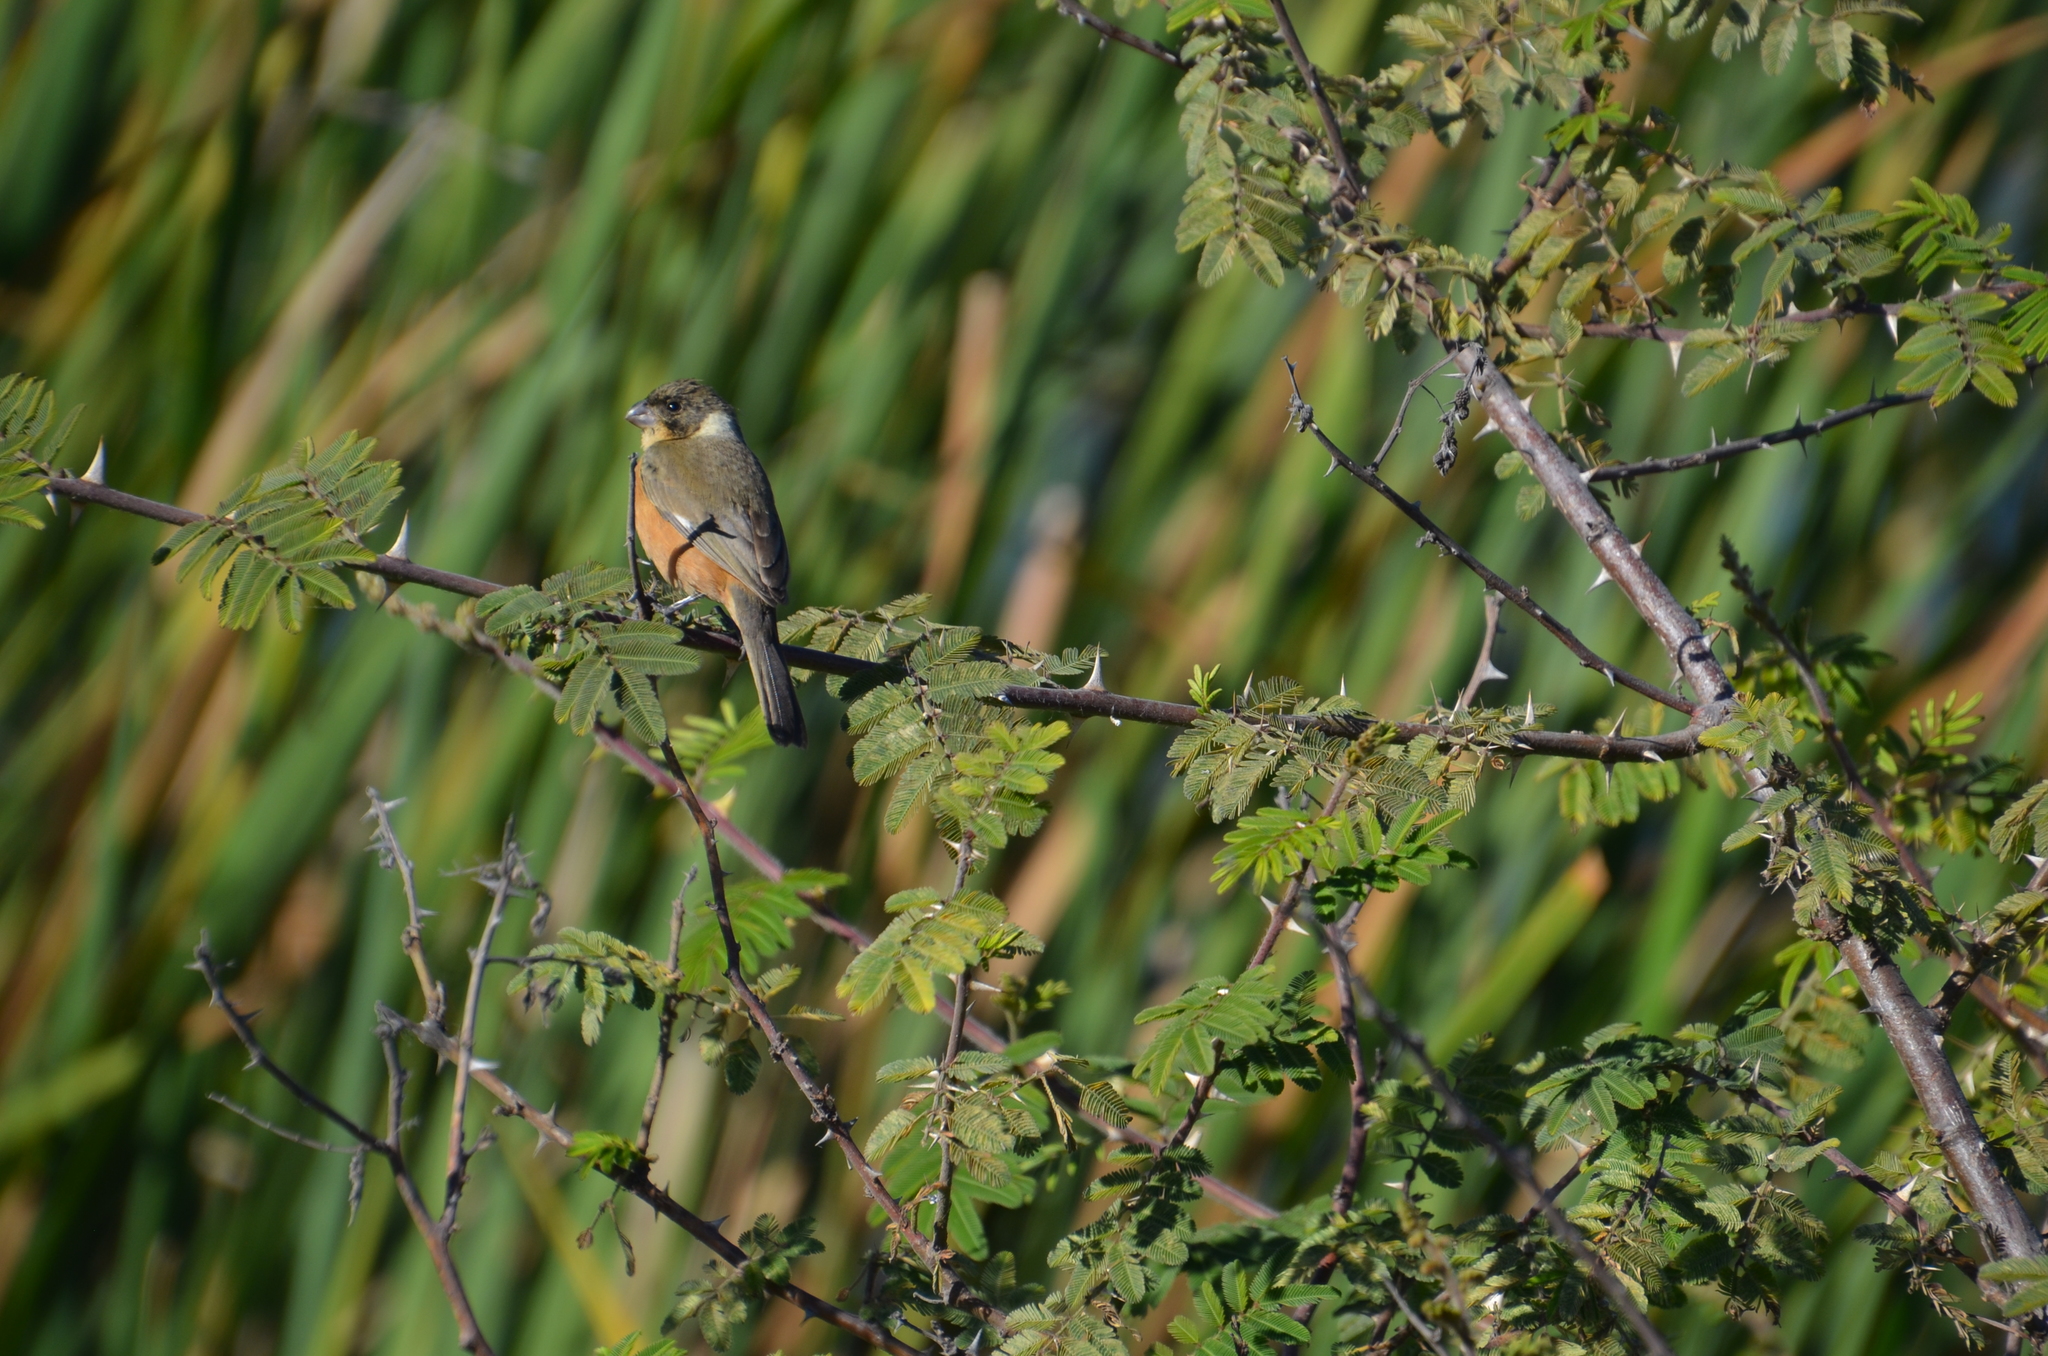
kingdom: Animalia
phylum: Chordata
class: Aves
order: Passeriformes
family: Thraupidae
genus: Sporophila
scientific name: Sporophila torqueola
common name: White-collared seedeater
